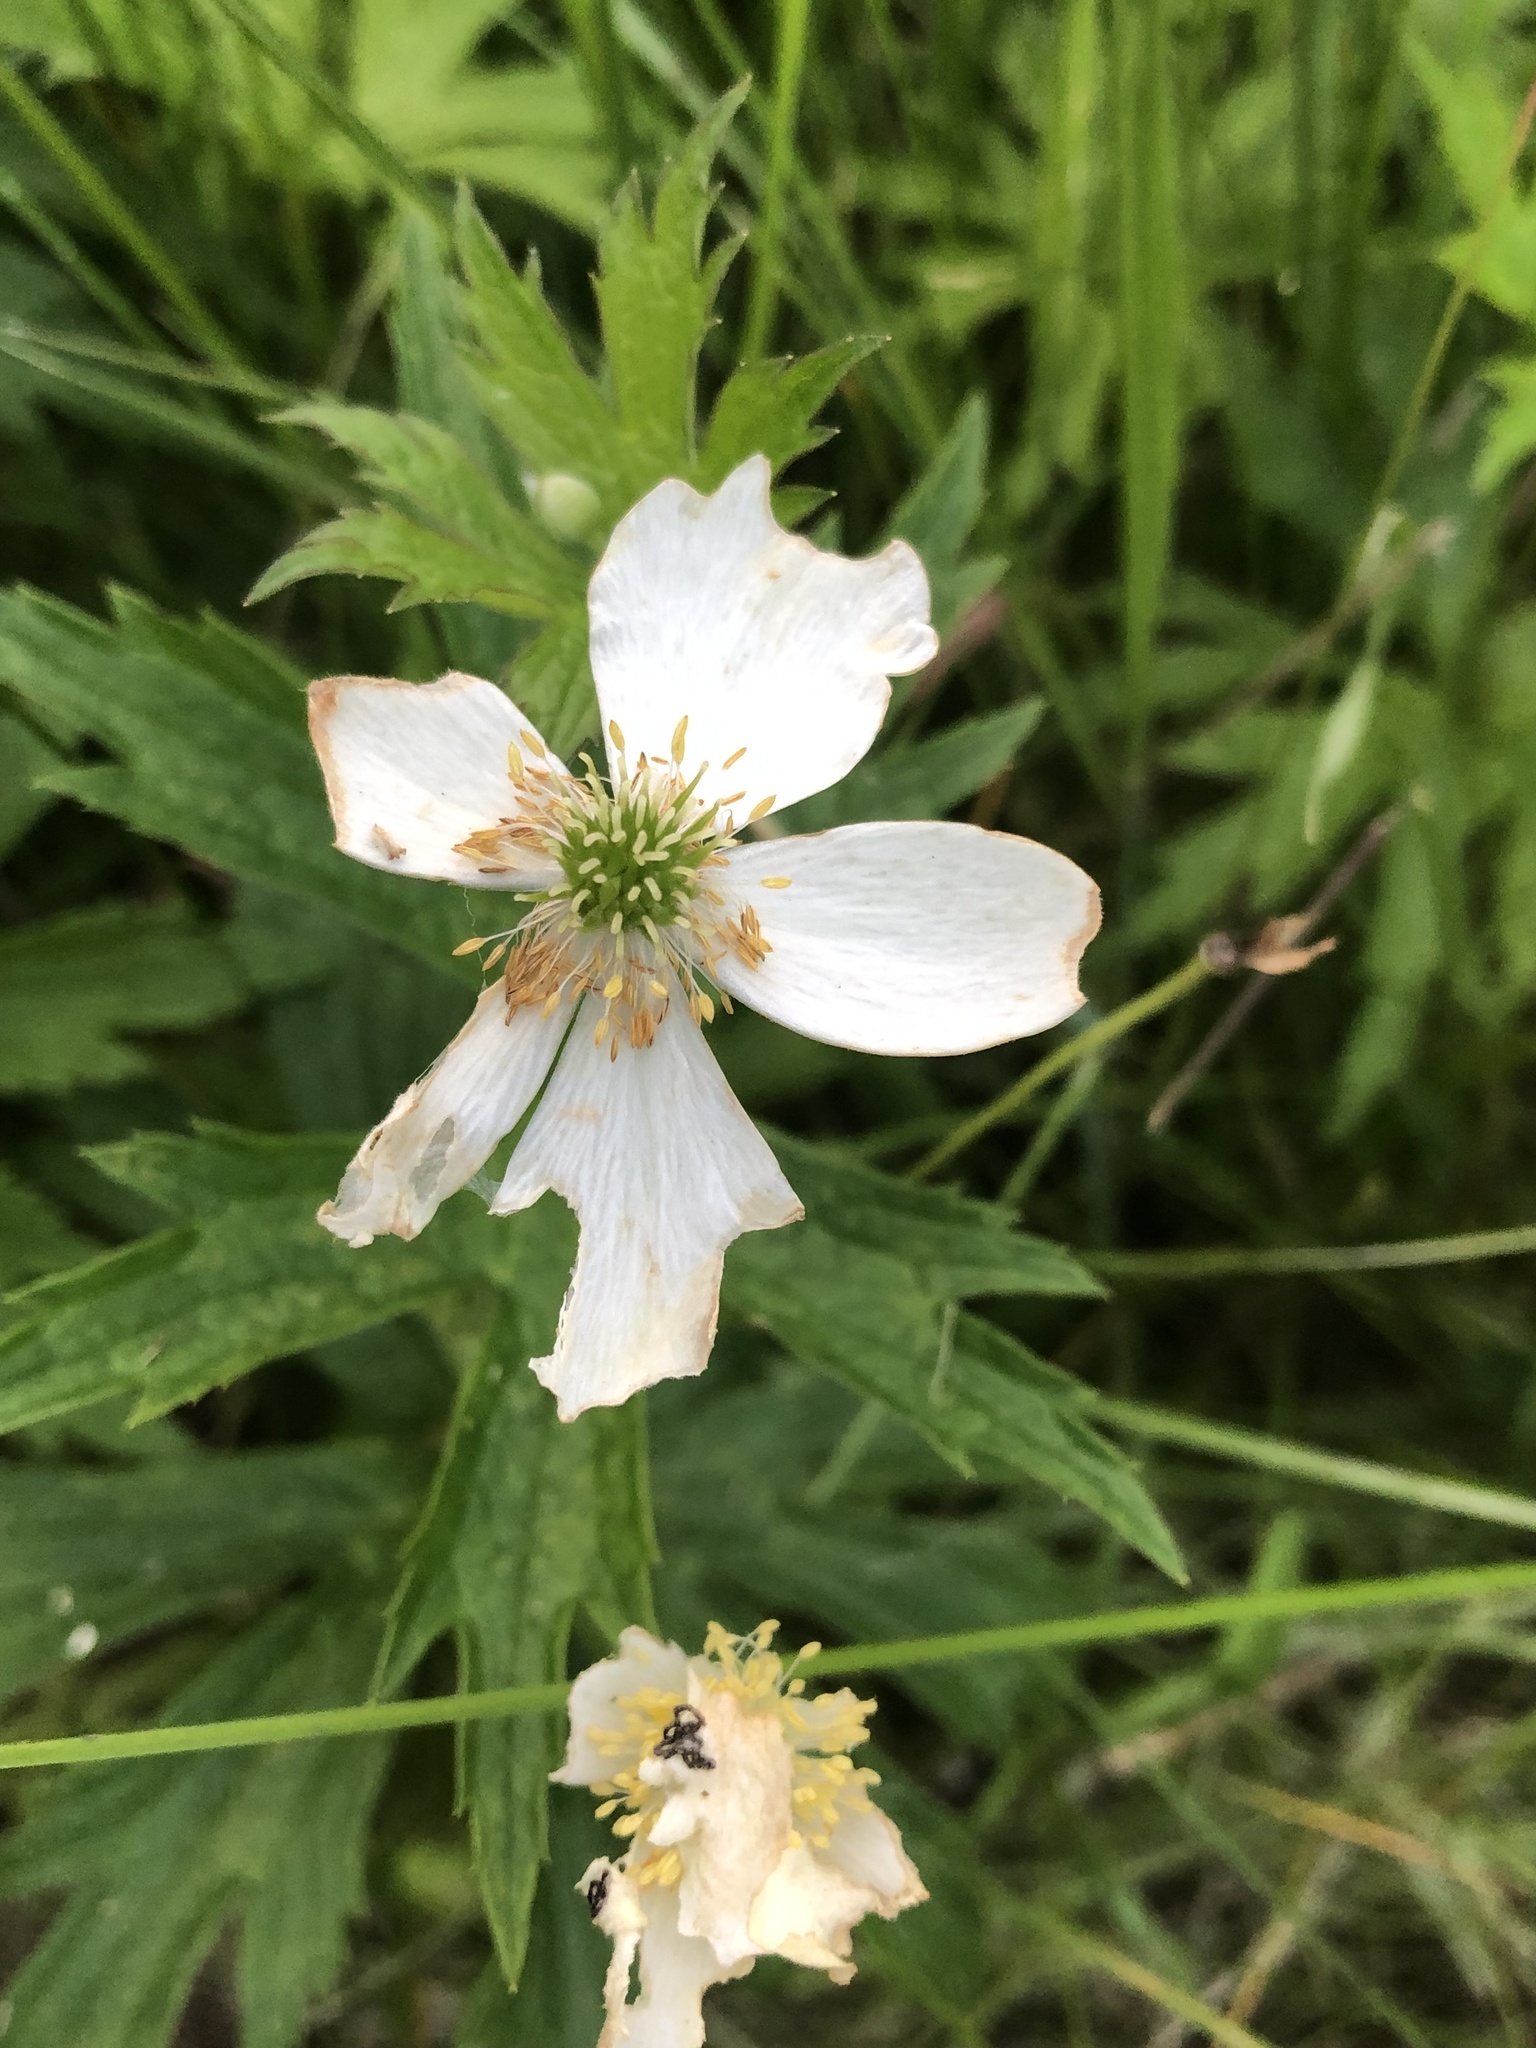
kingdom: Plantae
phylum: Tracheophyta
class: Magnoliopsida
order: Ranunculales
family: Ranunculaceae
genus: Anemonastrum
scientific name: Anemonastrum canadense
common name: Canada anemone
